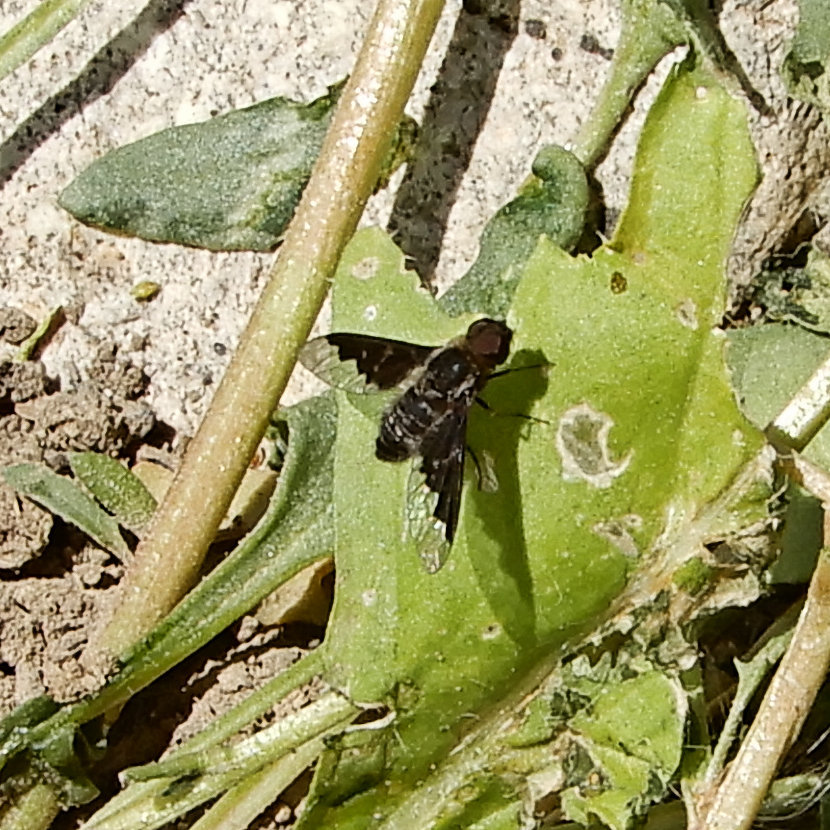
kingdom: Animalia
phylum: Arthropoda
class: Insecta
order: Diptera
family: Bombyliidae
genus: Hemipenthes
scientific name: Hemipenthes morioides
